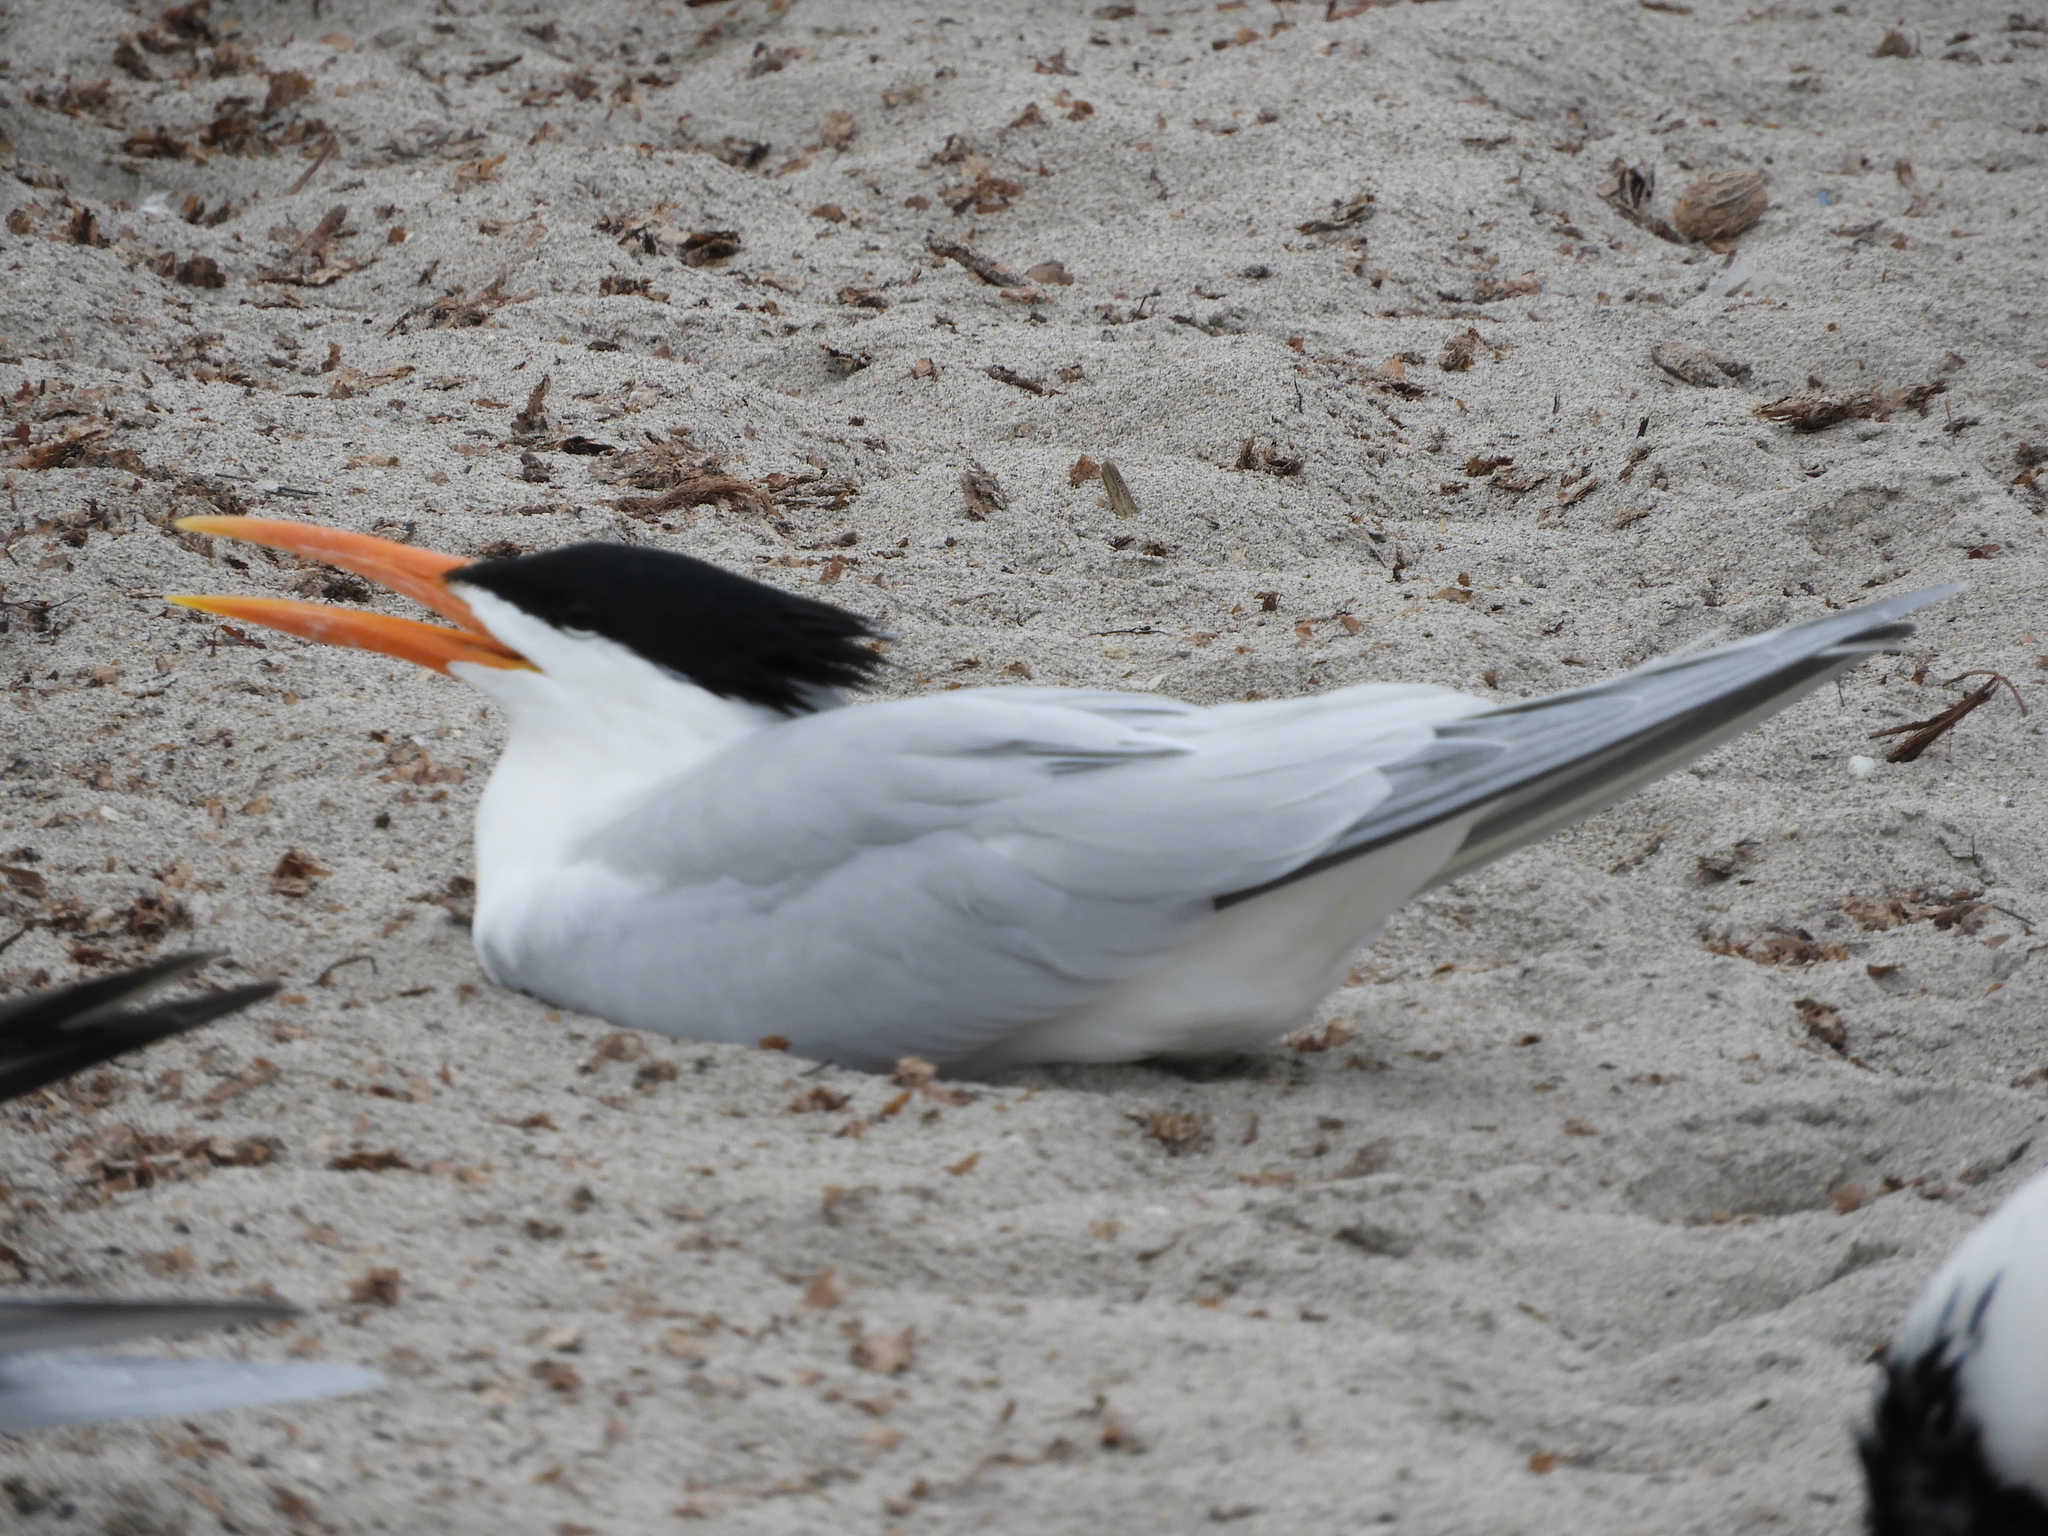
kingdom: Animalia
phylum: Chordata
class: Aves
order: Charadriiformes
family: Laridae
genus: Thalasseus
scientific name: Thalasseus maximus
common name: Royal tern
